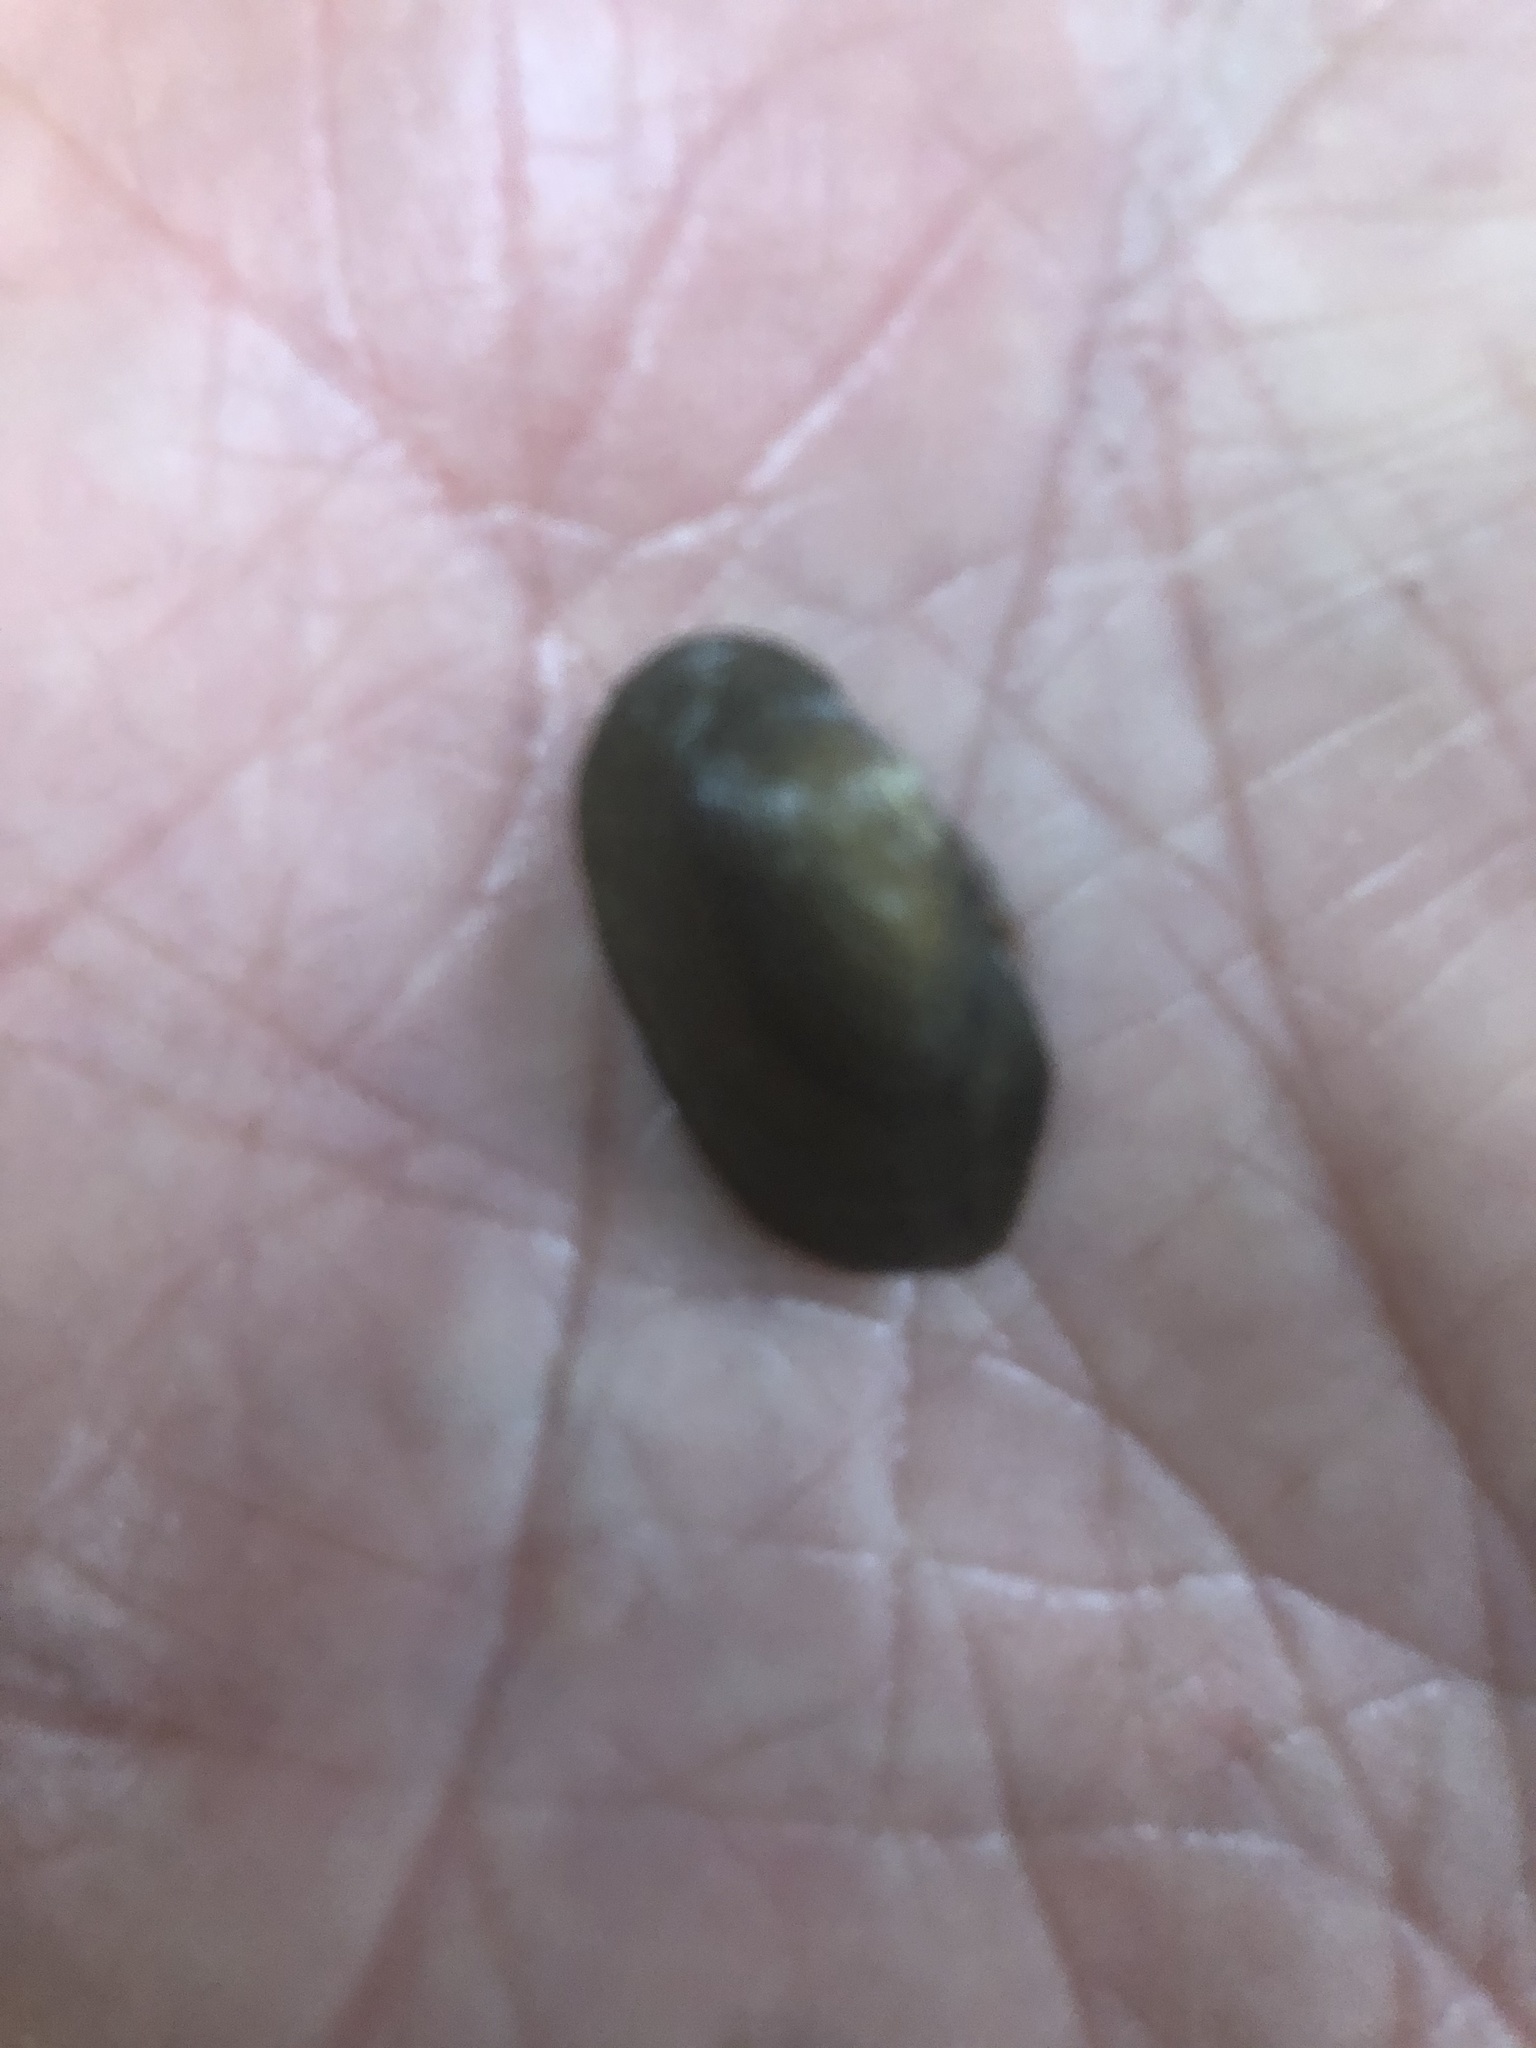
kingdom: Animalia
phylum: Mollusca
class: Bivalvia
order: Unionida
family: Unionidae
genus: Toxolasma
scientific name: Toxolasma parvum
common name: Lilliput
